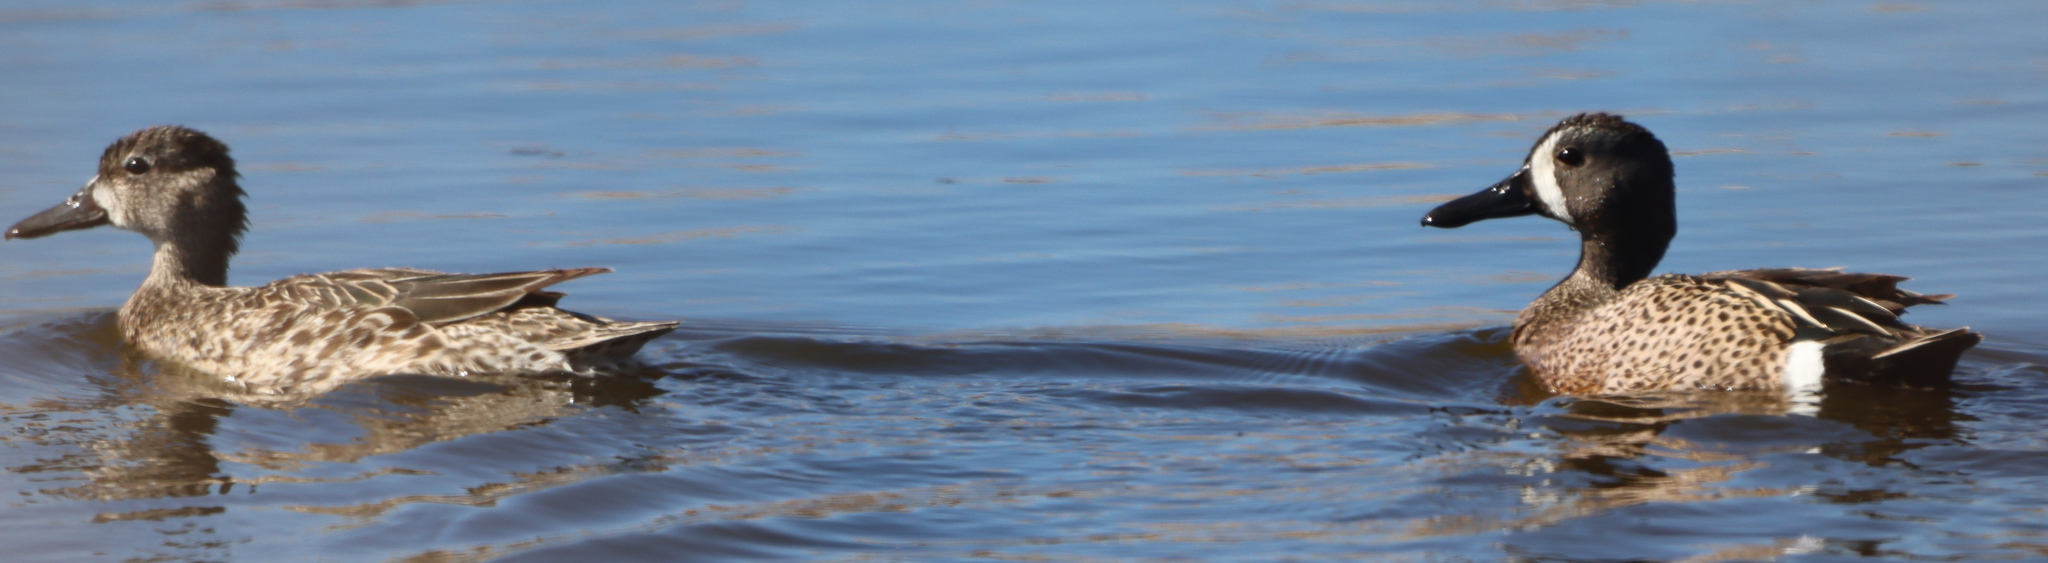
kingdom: Animalia
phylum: Chordata
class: Aves
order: Anseriformes
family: Anatidae
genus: Spatula
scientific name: Spatula discors
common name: Blue-winged teal
